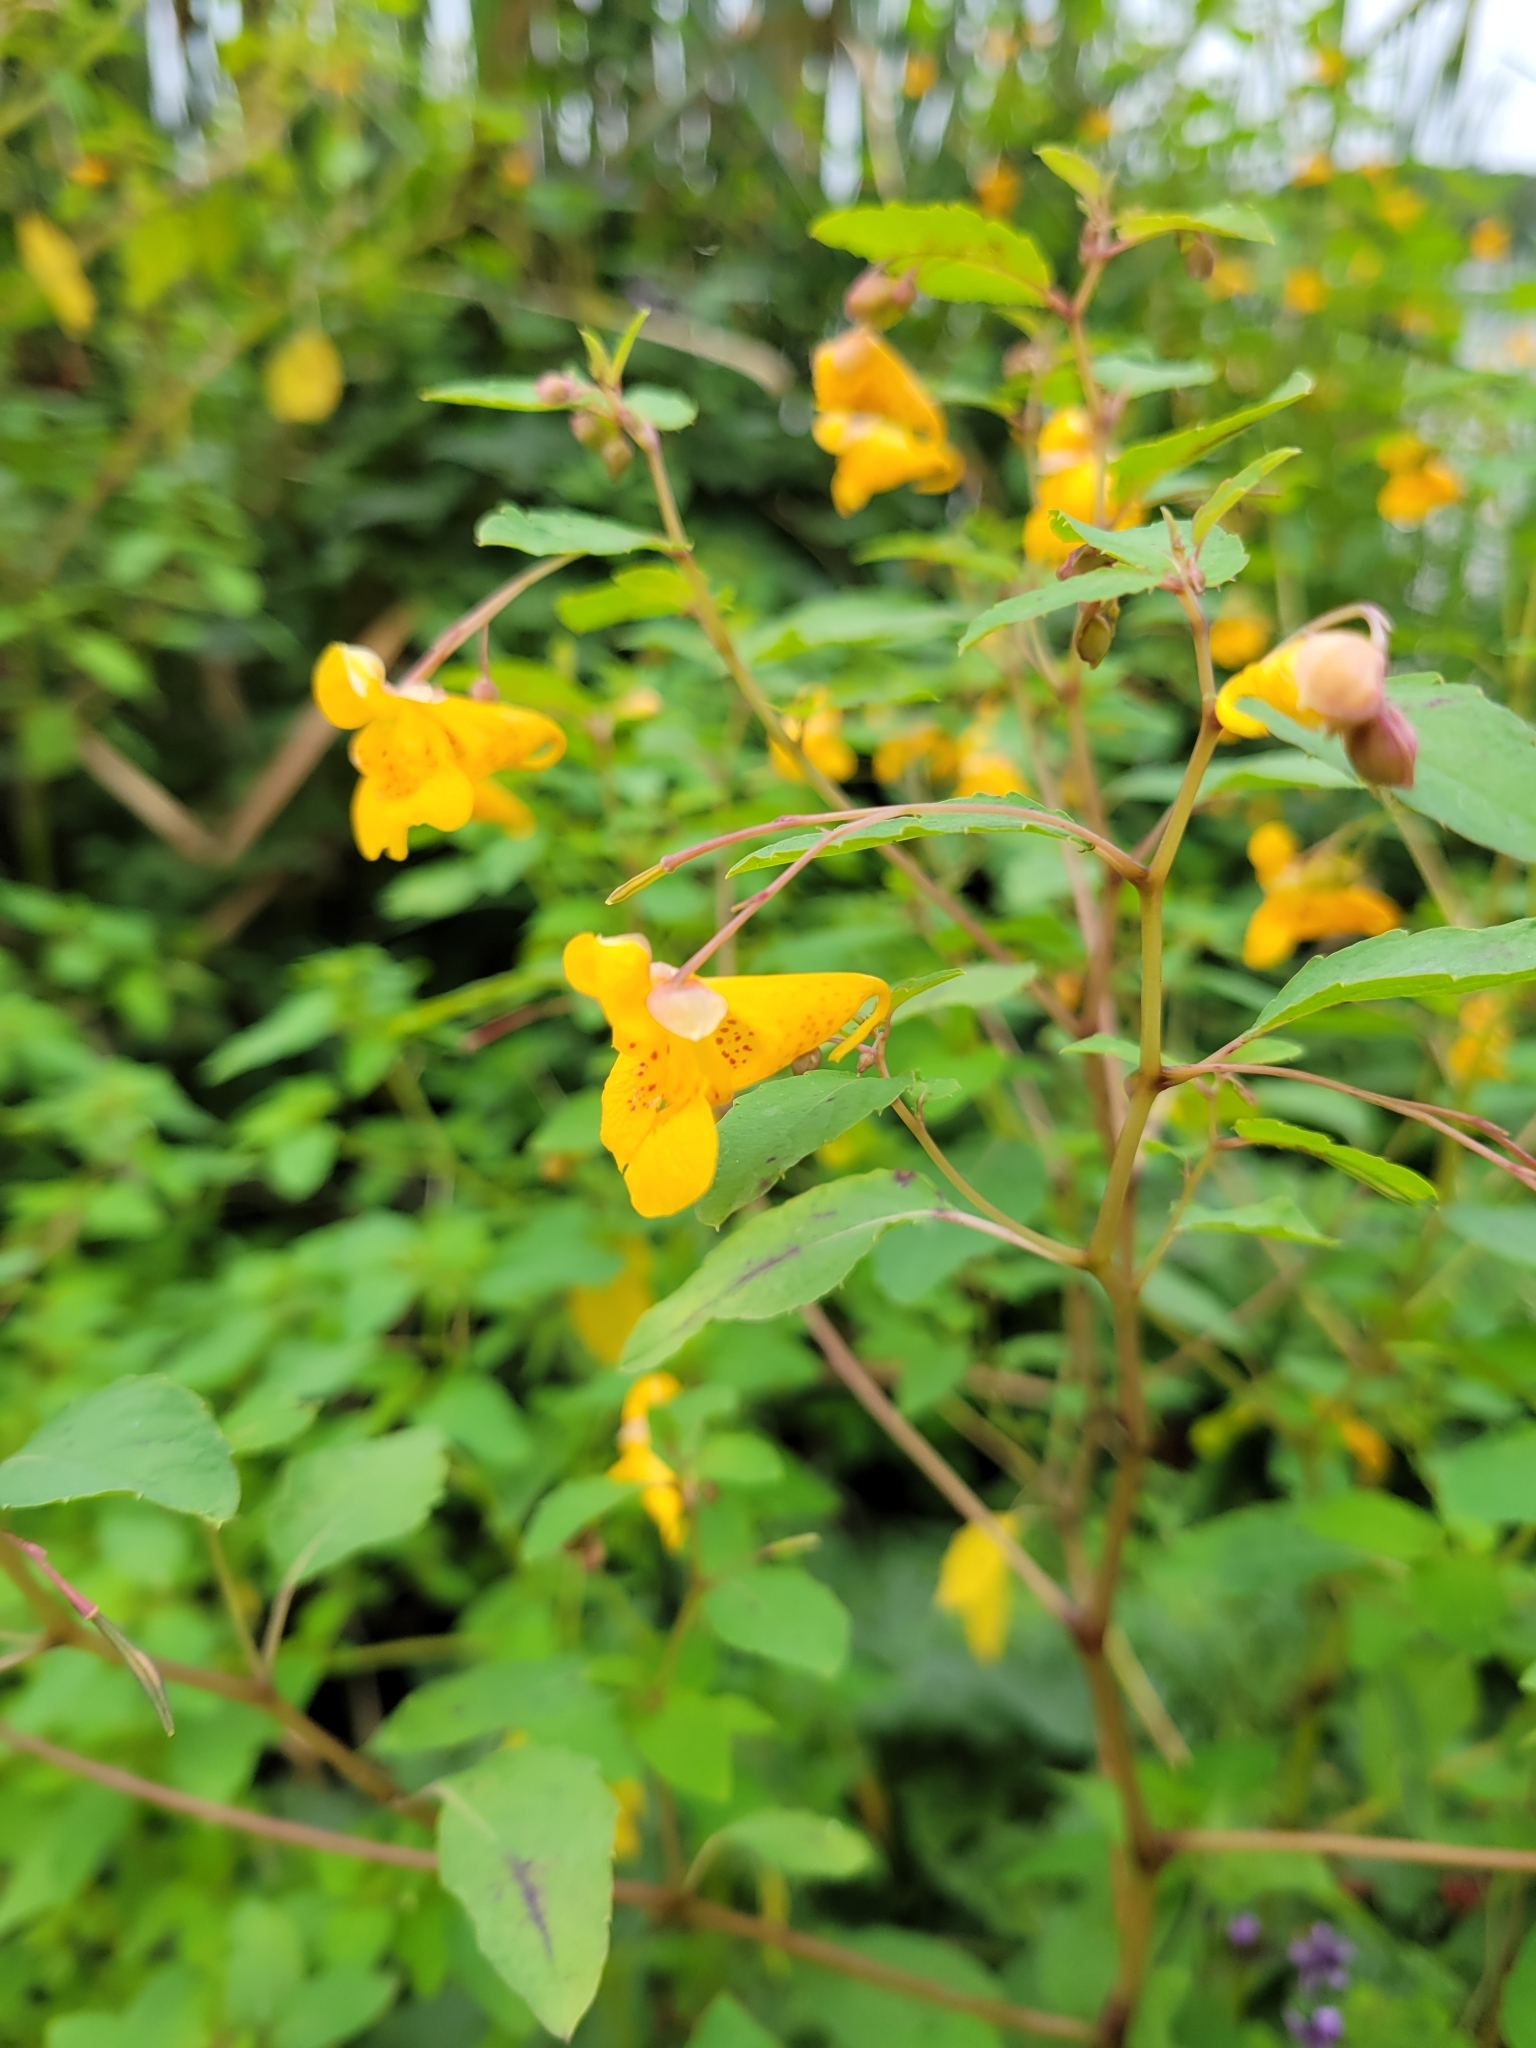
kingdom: Plantae
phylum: Tracheophyta
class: Magnoliopsida
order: Ericales
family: Balsaminaceae
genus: Impatiens
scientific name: Impatiens capensis
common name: Orange balsam
